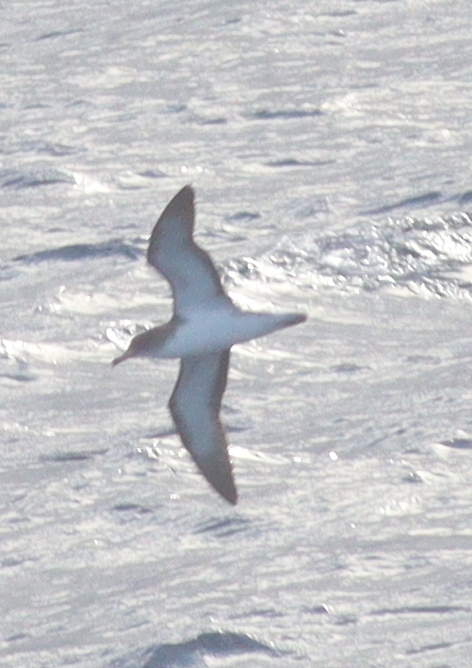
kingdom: Animalia
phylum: Chordata
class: Aves
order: Procellariiformes
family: Procellariidae
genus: Calonectris
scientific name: Calonectris diomedea
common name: Cory's shearwater
